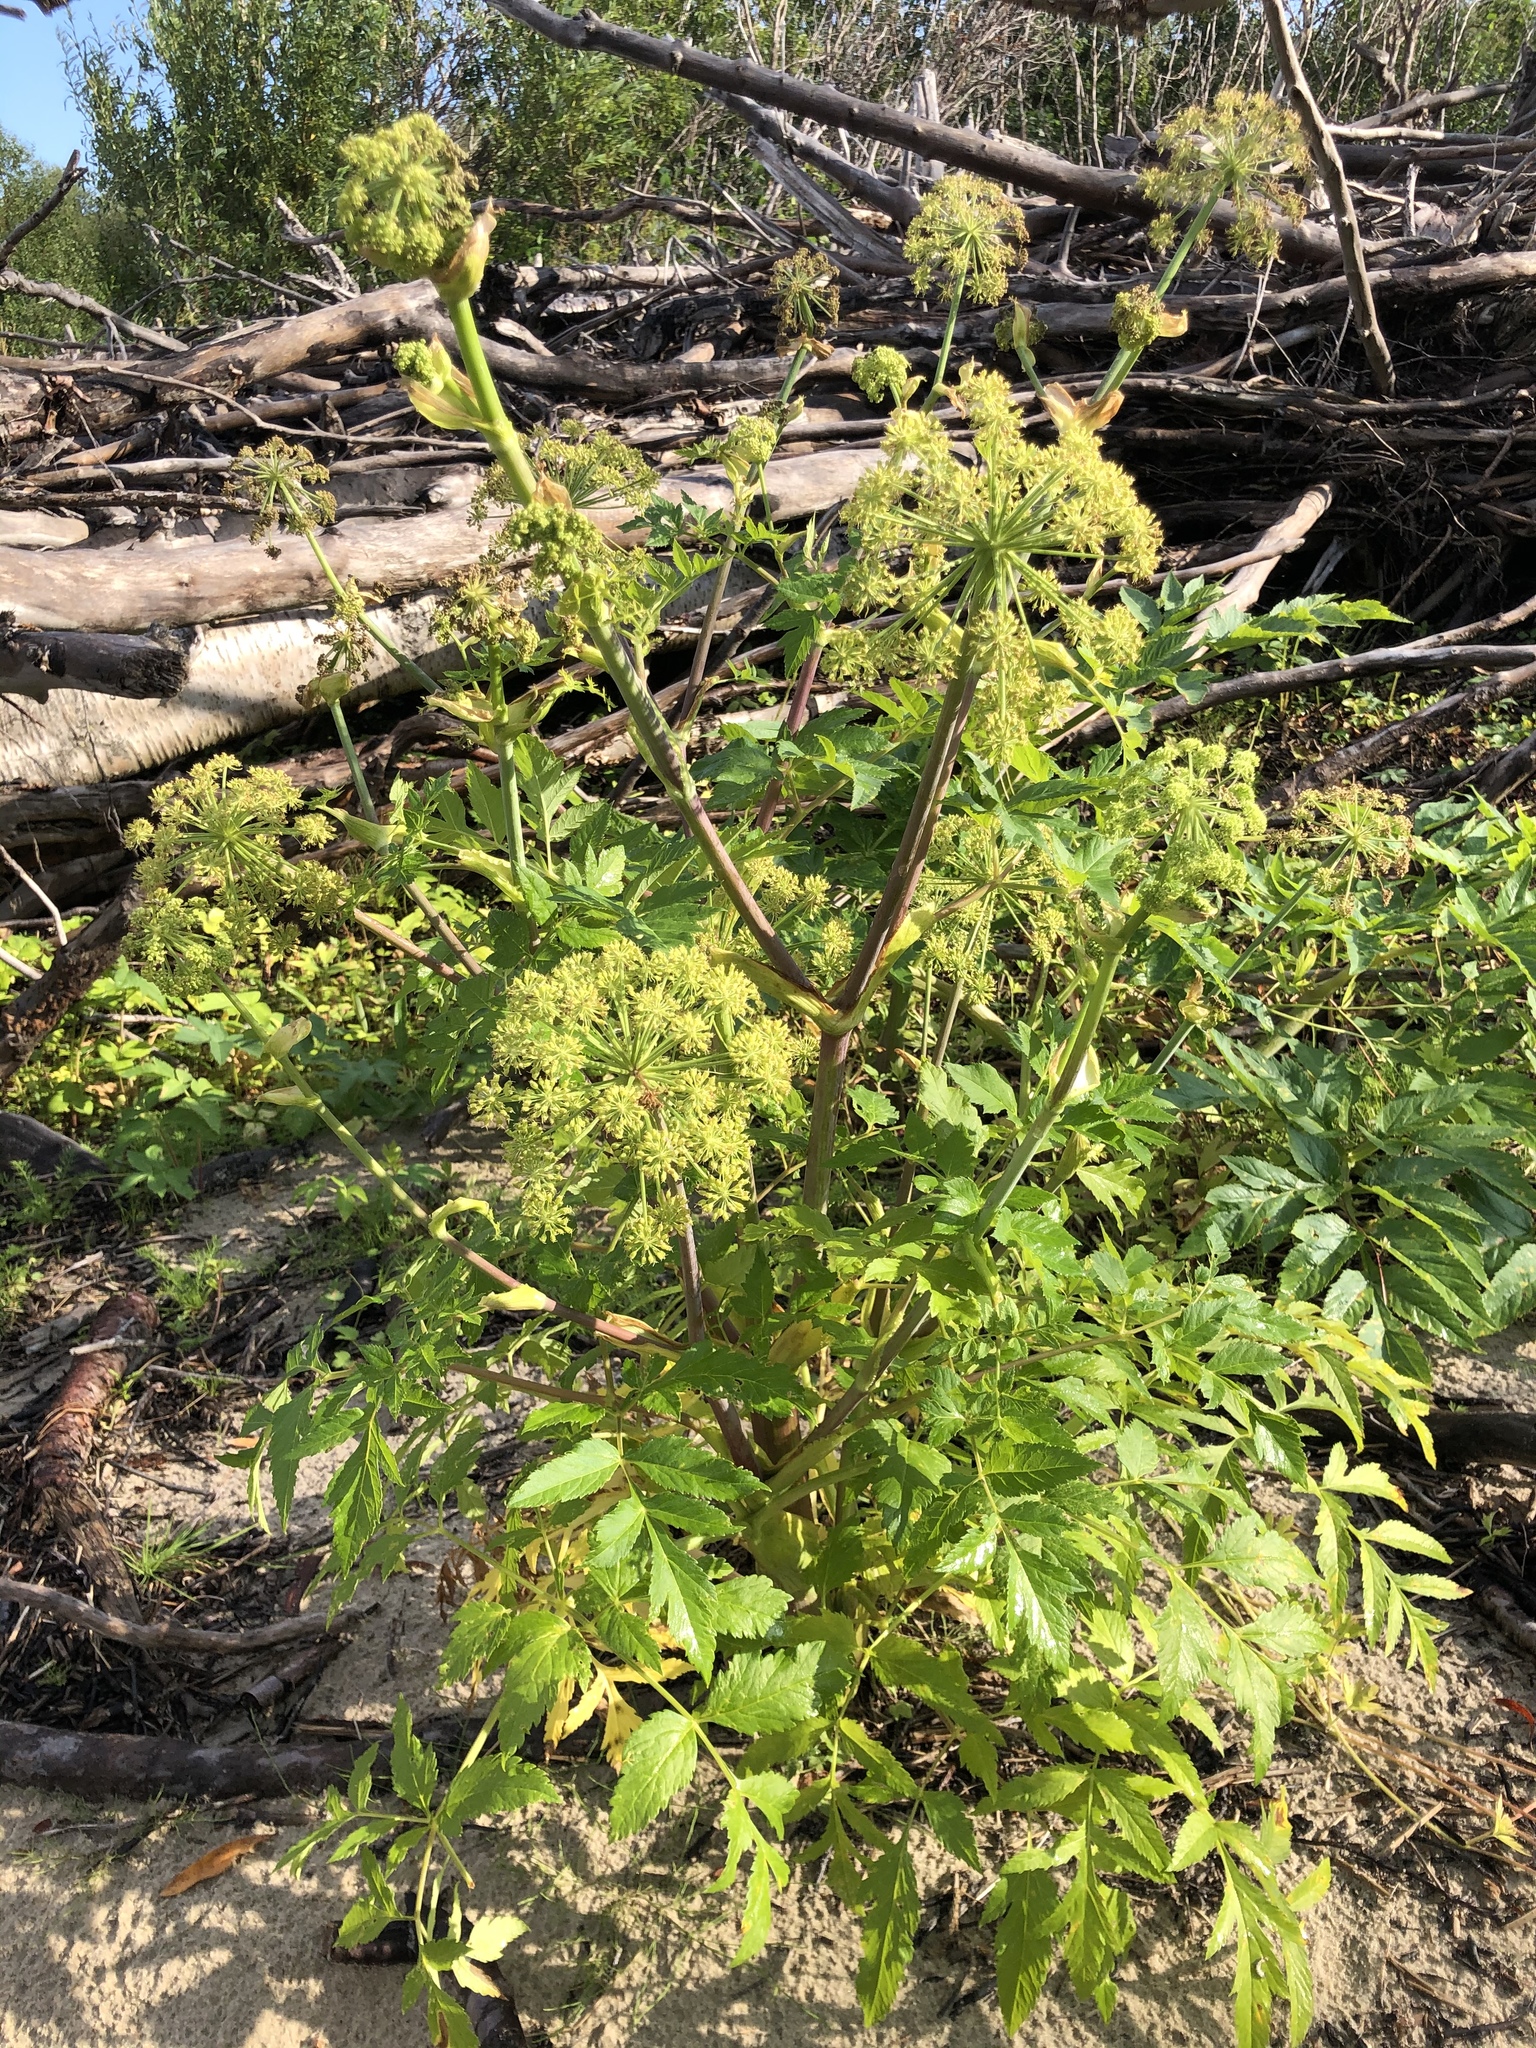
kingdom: Plantae
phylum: Tracheophyta
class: Magnoliopsida
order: Apiales
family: Apiaceae
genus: Angelica
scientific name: Angelica decurrens
